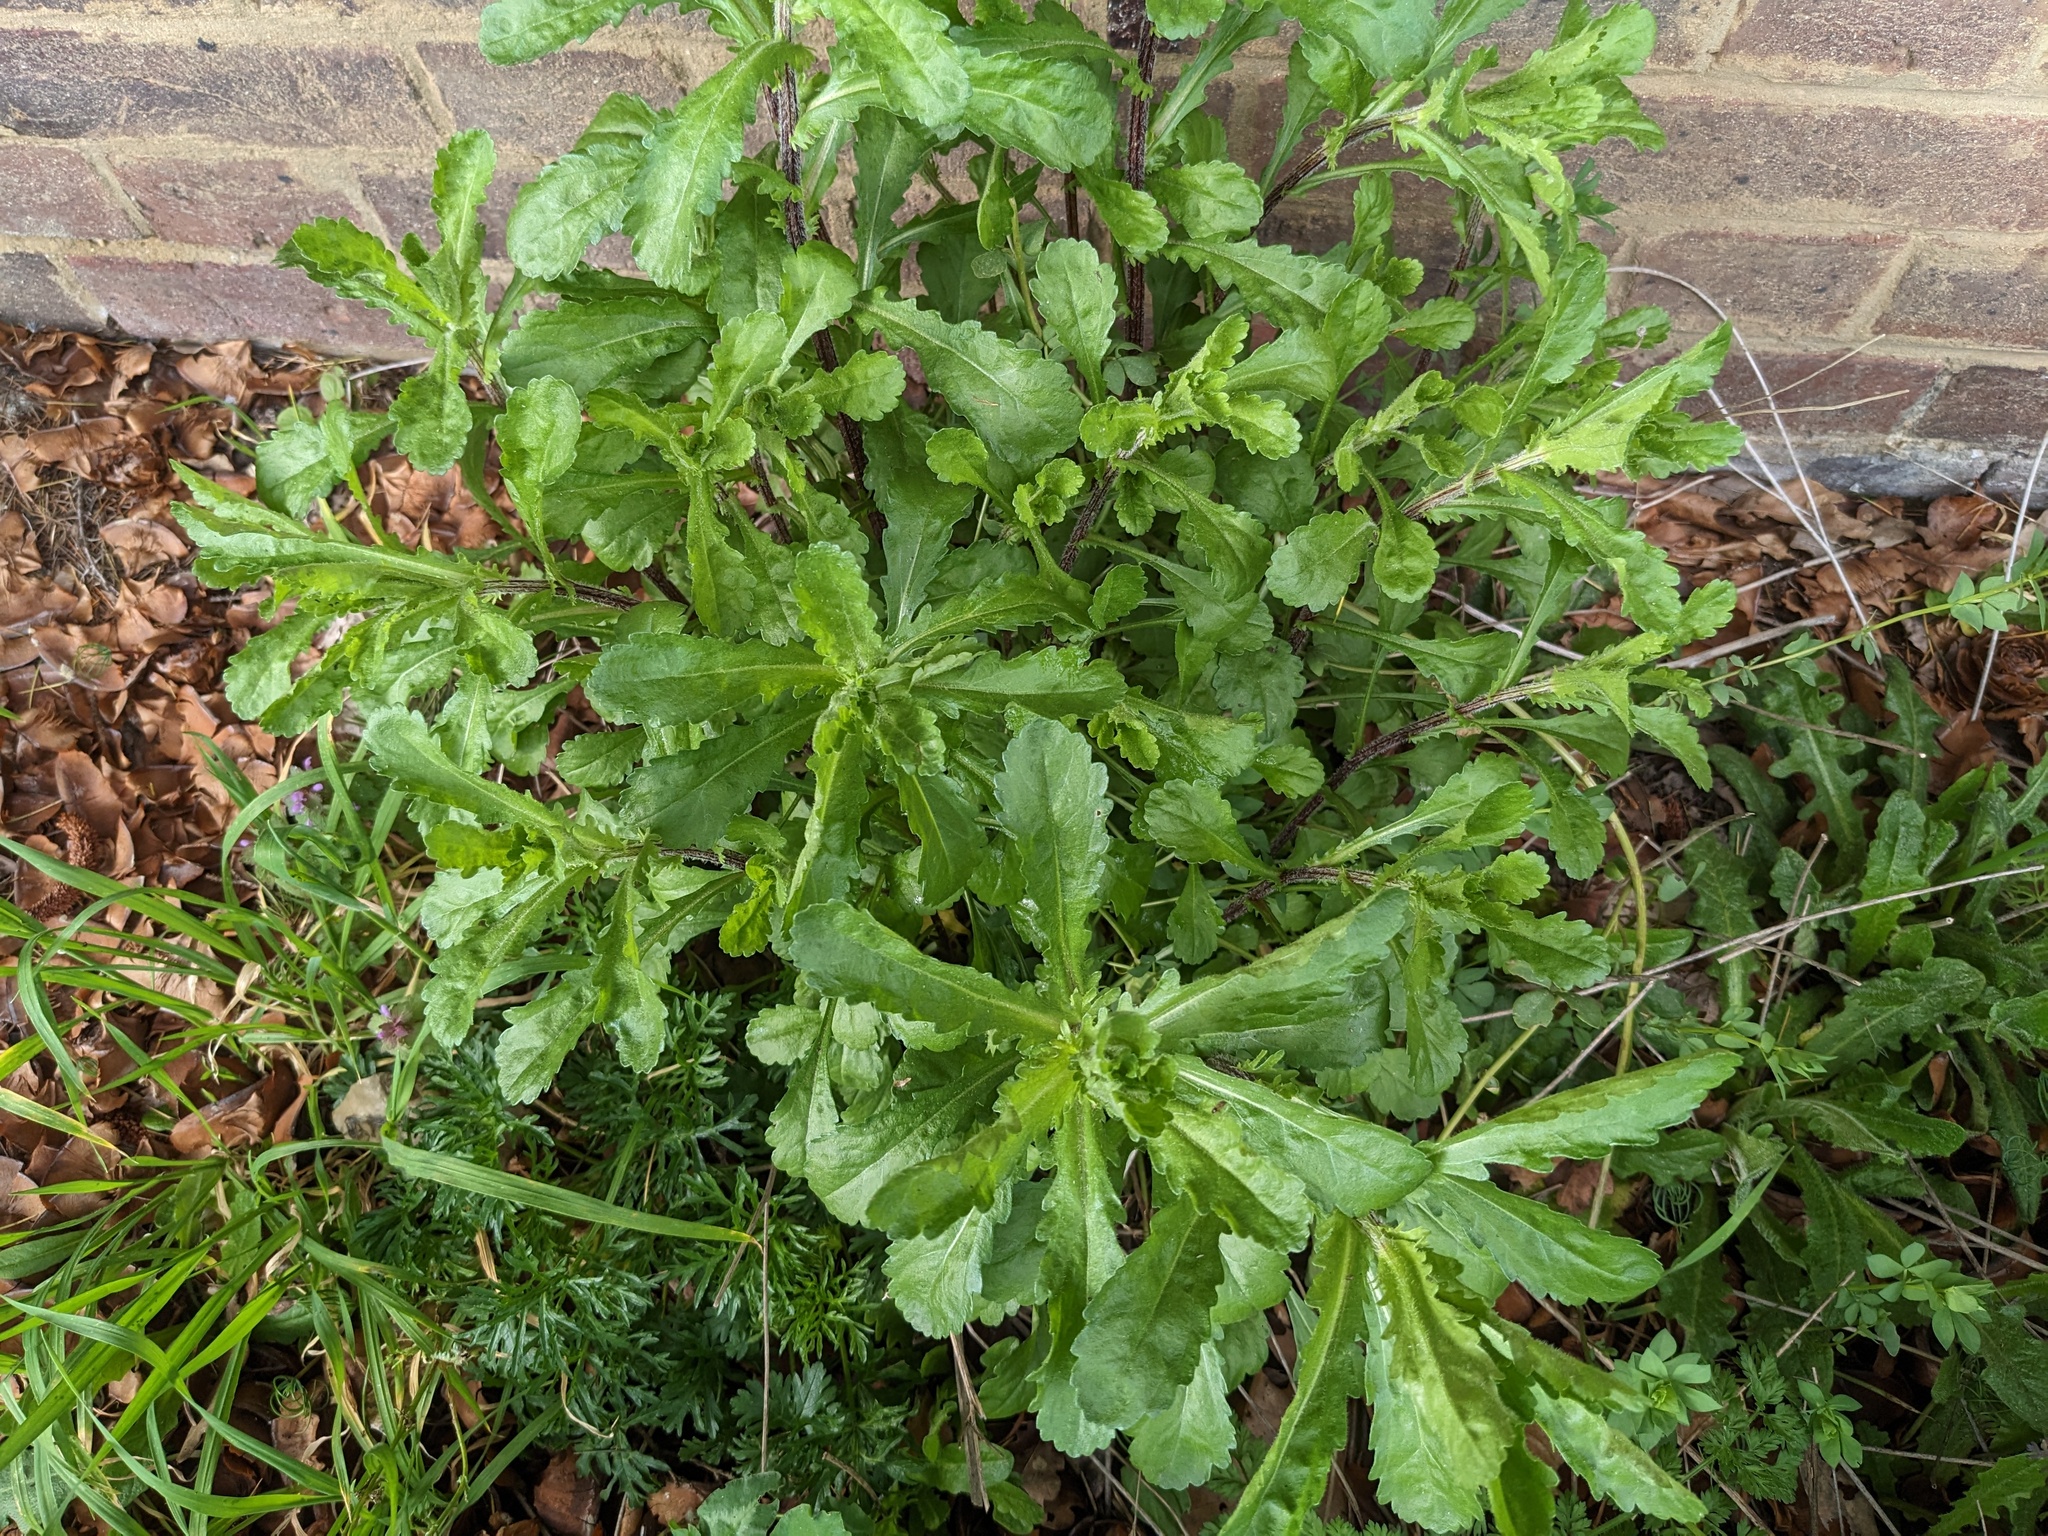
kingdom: Plantae
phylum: Tracheophyta
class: Magnoliopsida
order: Asterales
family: Asteraceae
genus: Leucanthemum
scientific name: Leucanthemum vulgare
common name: Oxeye daisy
